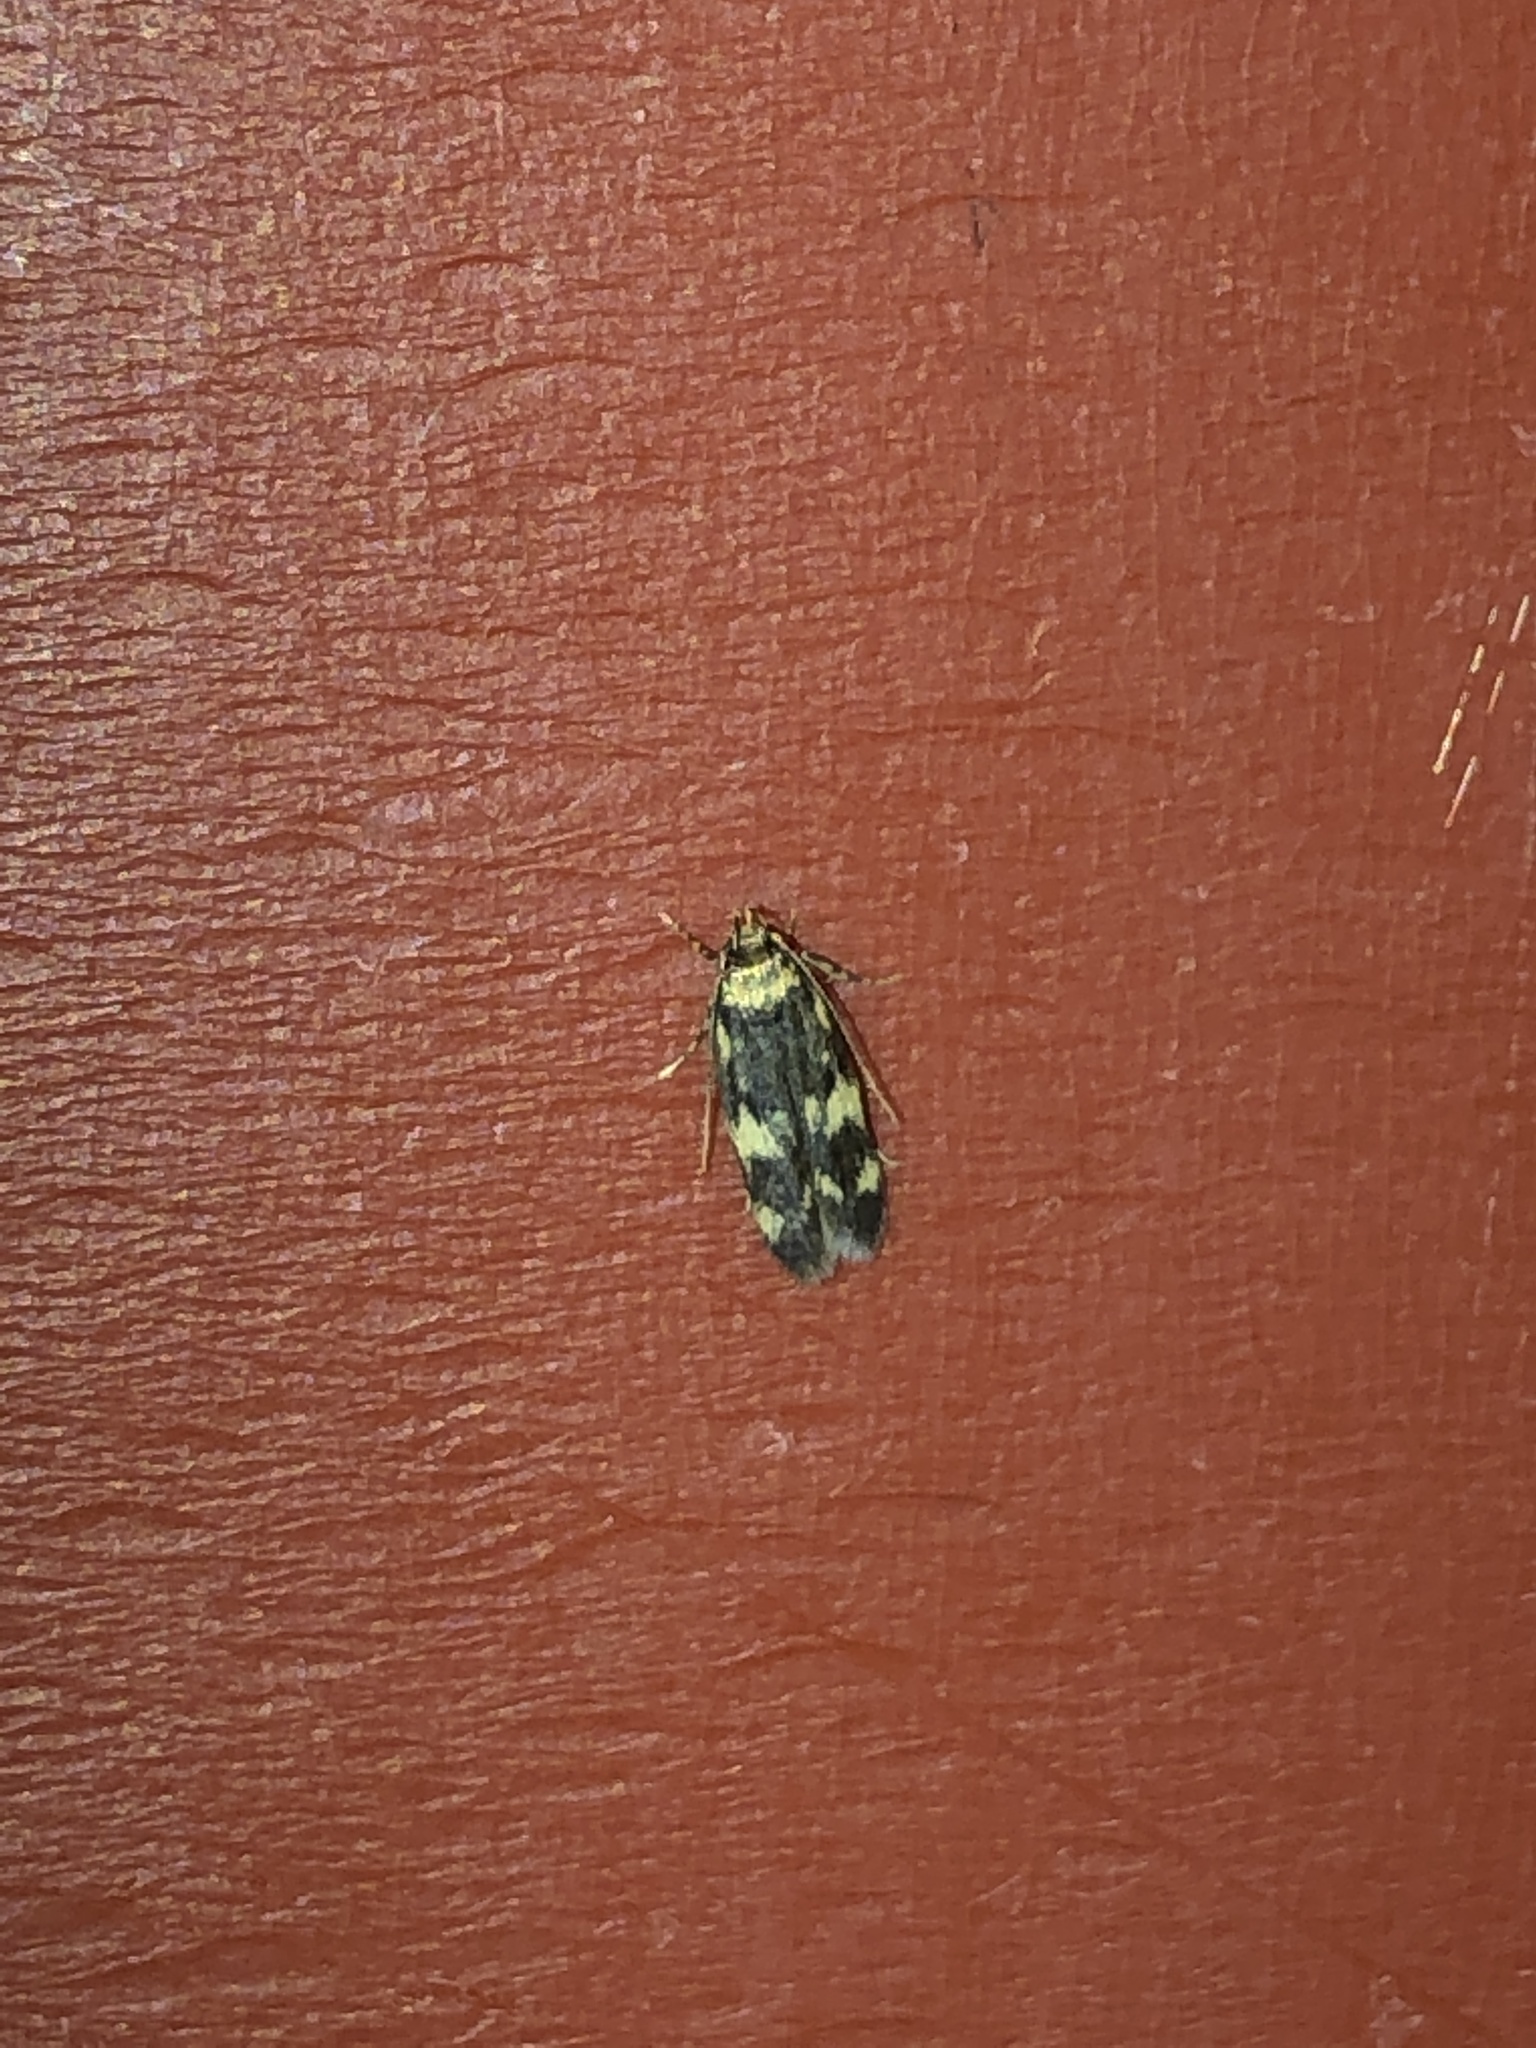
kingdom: Animalia
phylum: Arthropoda
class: Insecta
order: Lepidoptera
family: Autostichidae
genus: Oegoconia
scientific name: Oegoconia quadripuncta
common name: Four-spotted obscure
